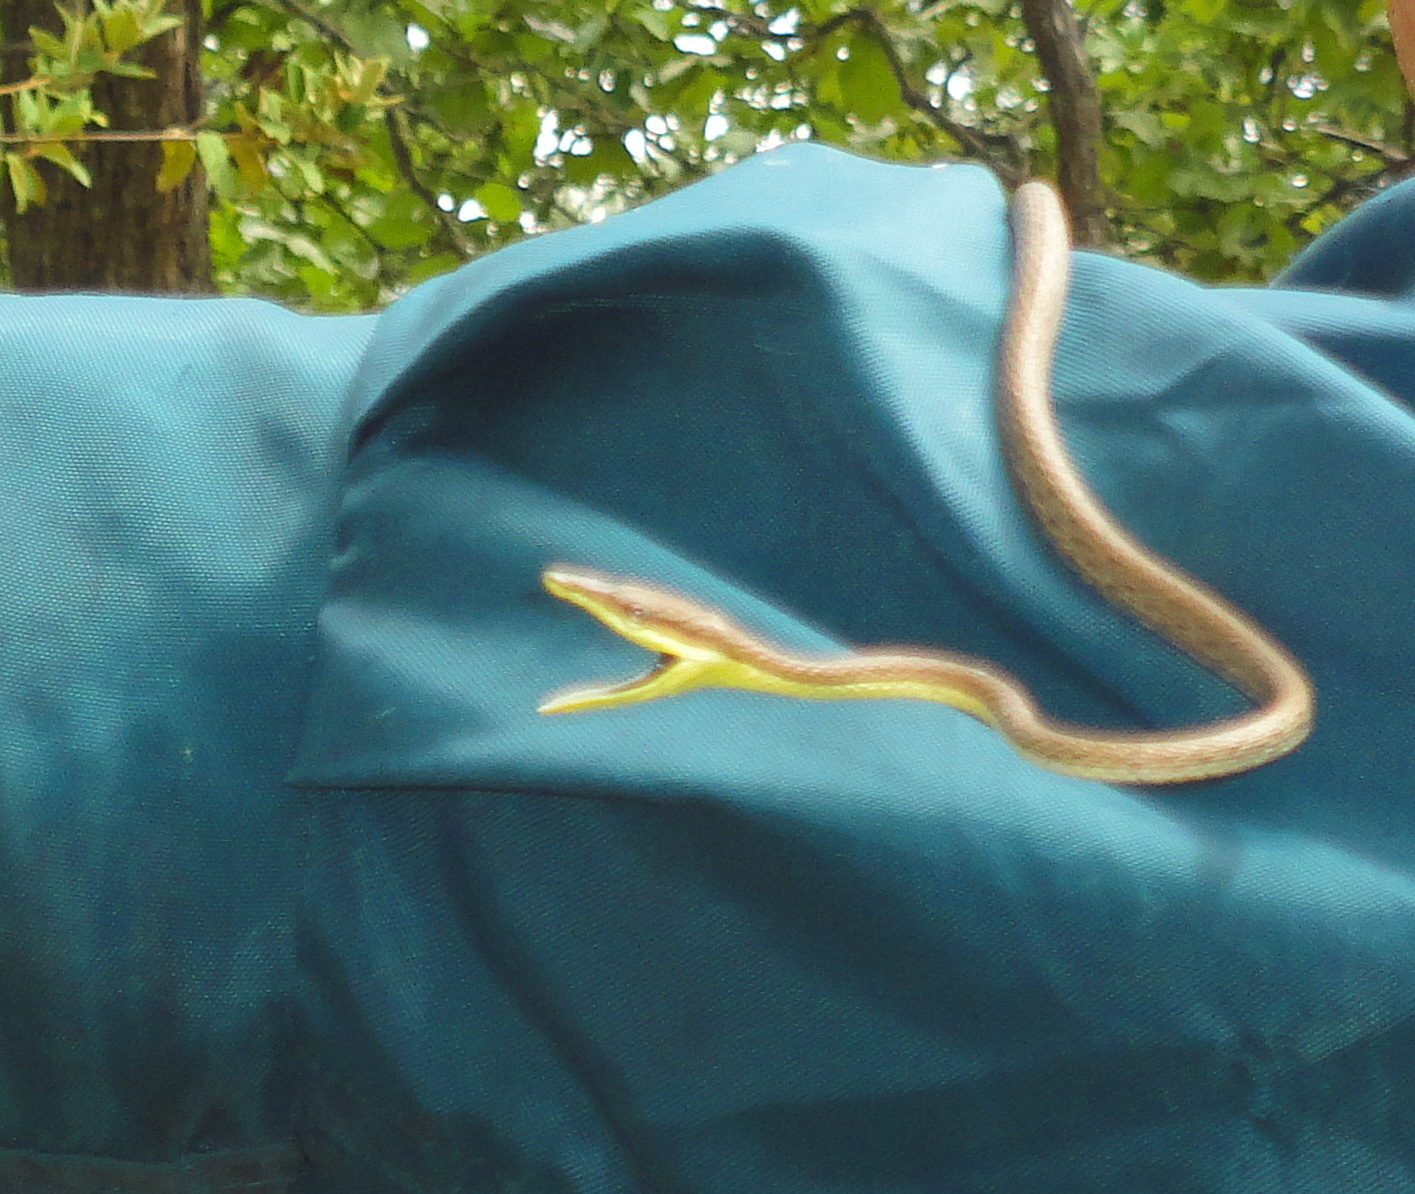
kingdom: Animalia
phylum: Chordata
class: Squamata
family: Colubridae
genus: Oxybelis
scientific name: Oxybelis microphthalmus
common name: Thrornscrub vine snake
